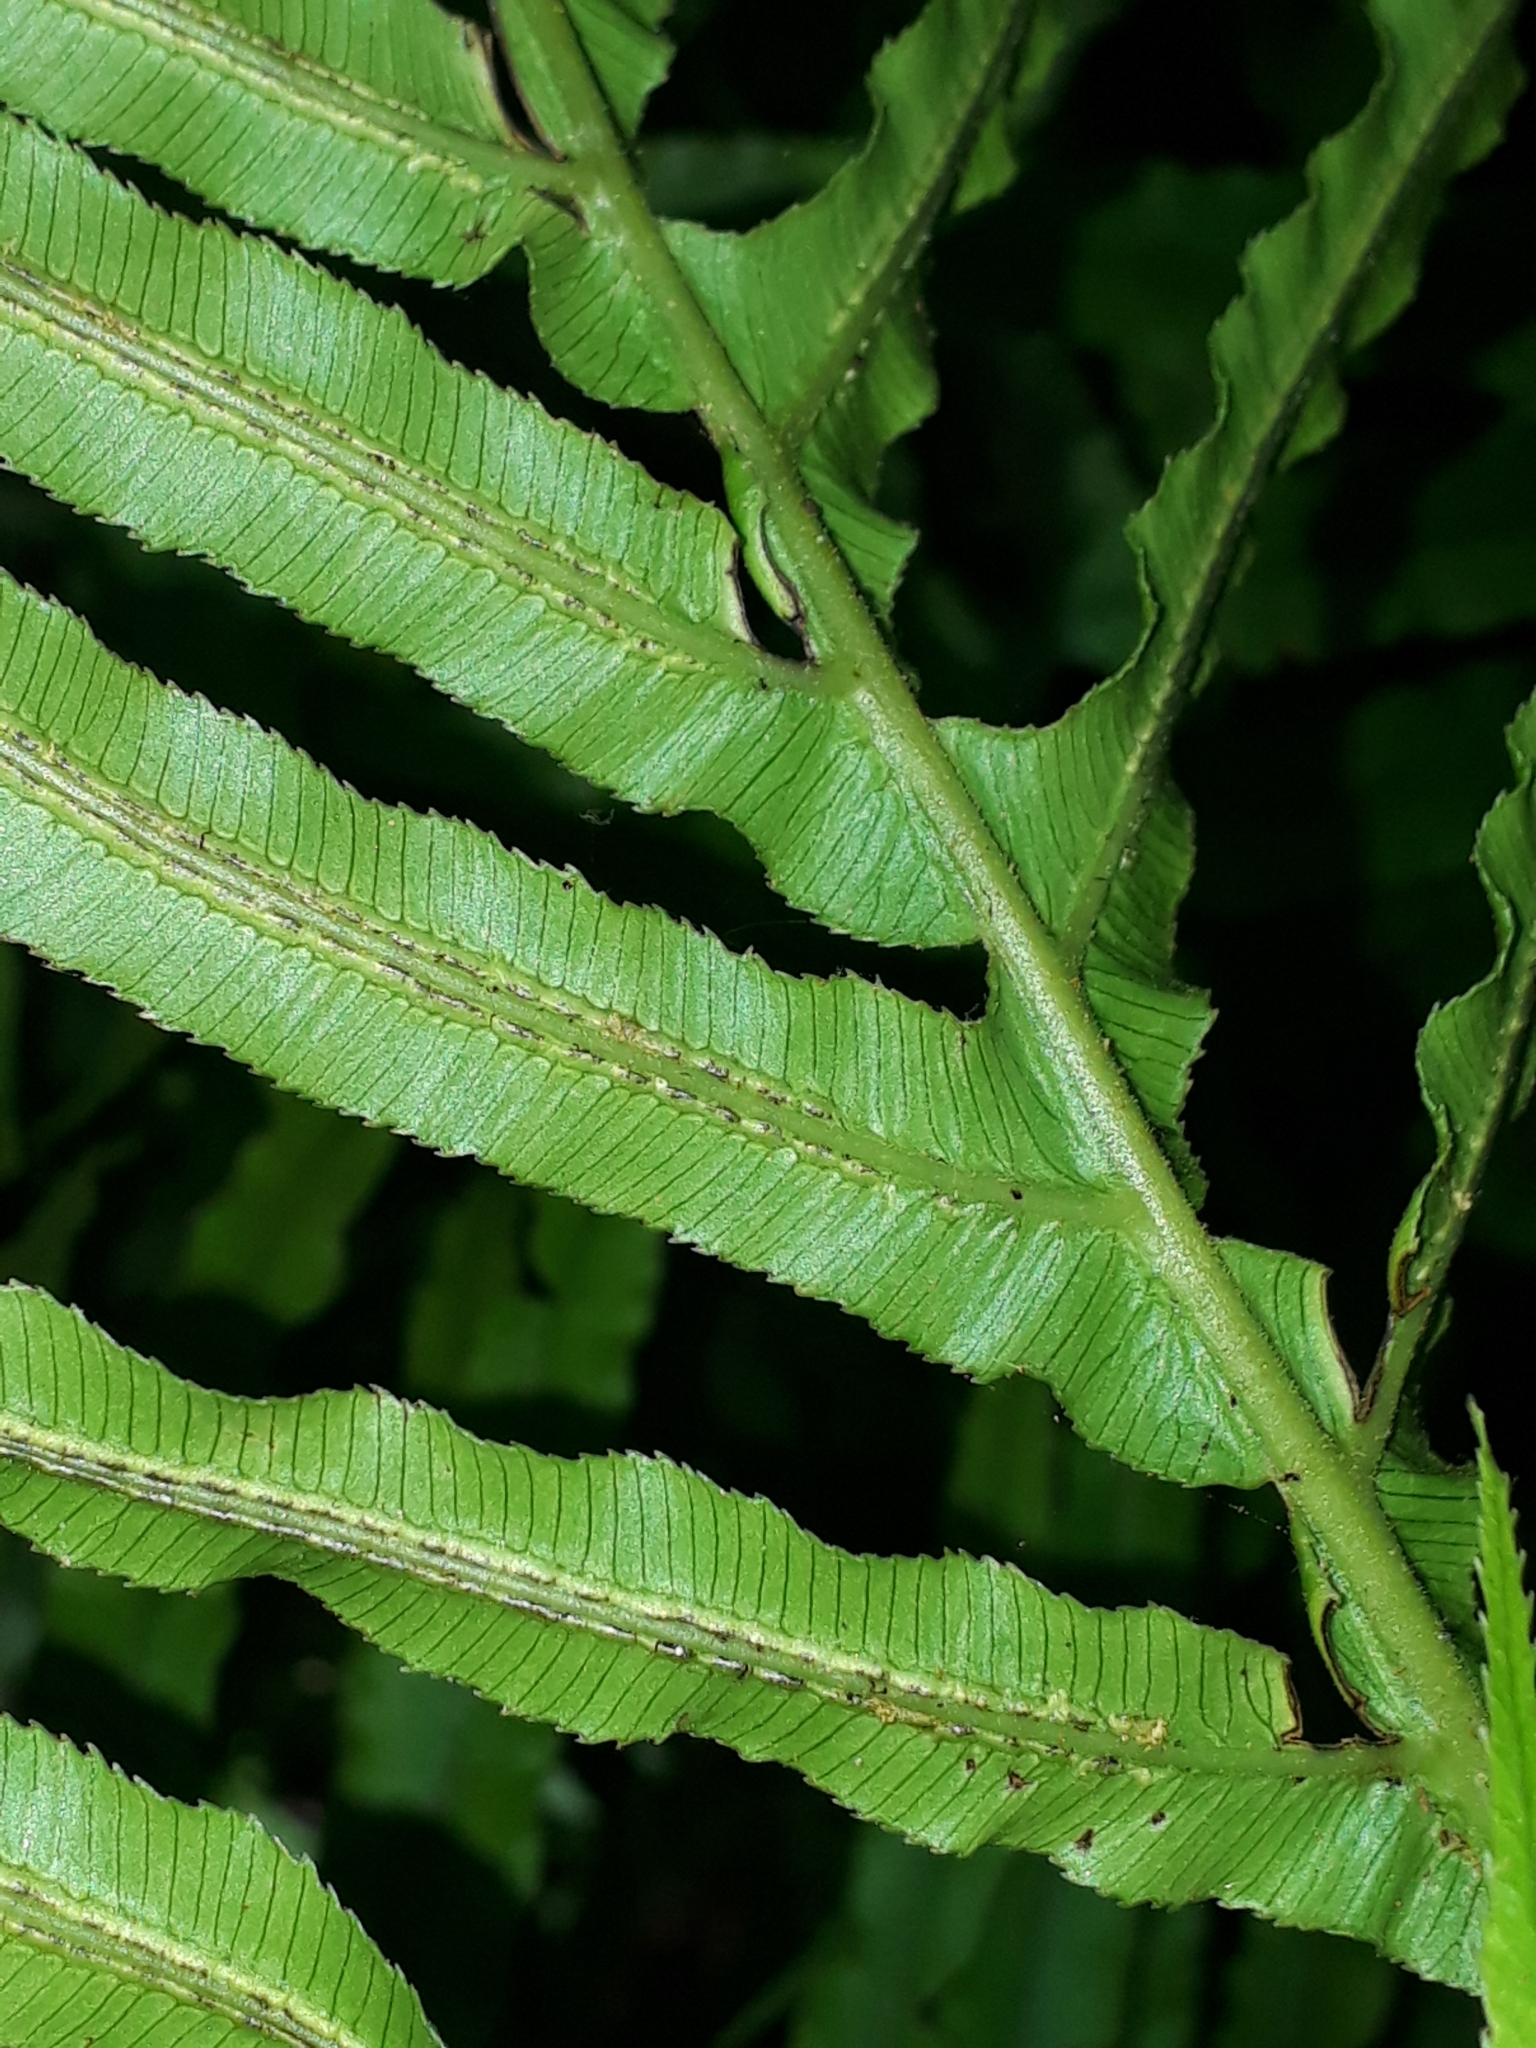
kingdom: Plantae
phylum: Tracheophyta
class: Polypodiopsida
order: Polypodiales
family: Blechnaceae
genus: Oceaniopteris
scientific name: Oceaniopteris cartilaginea
